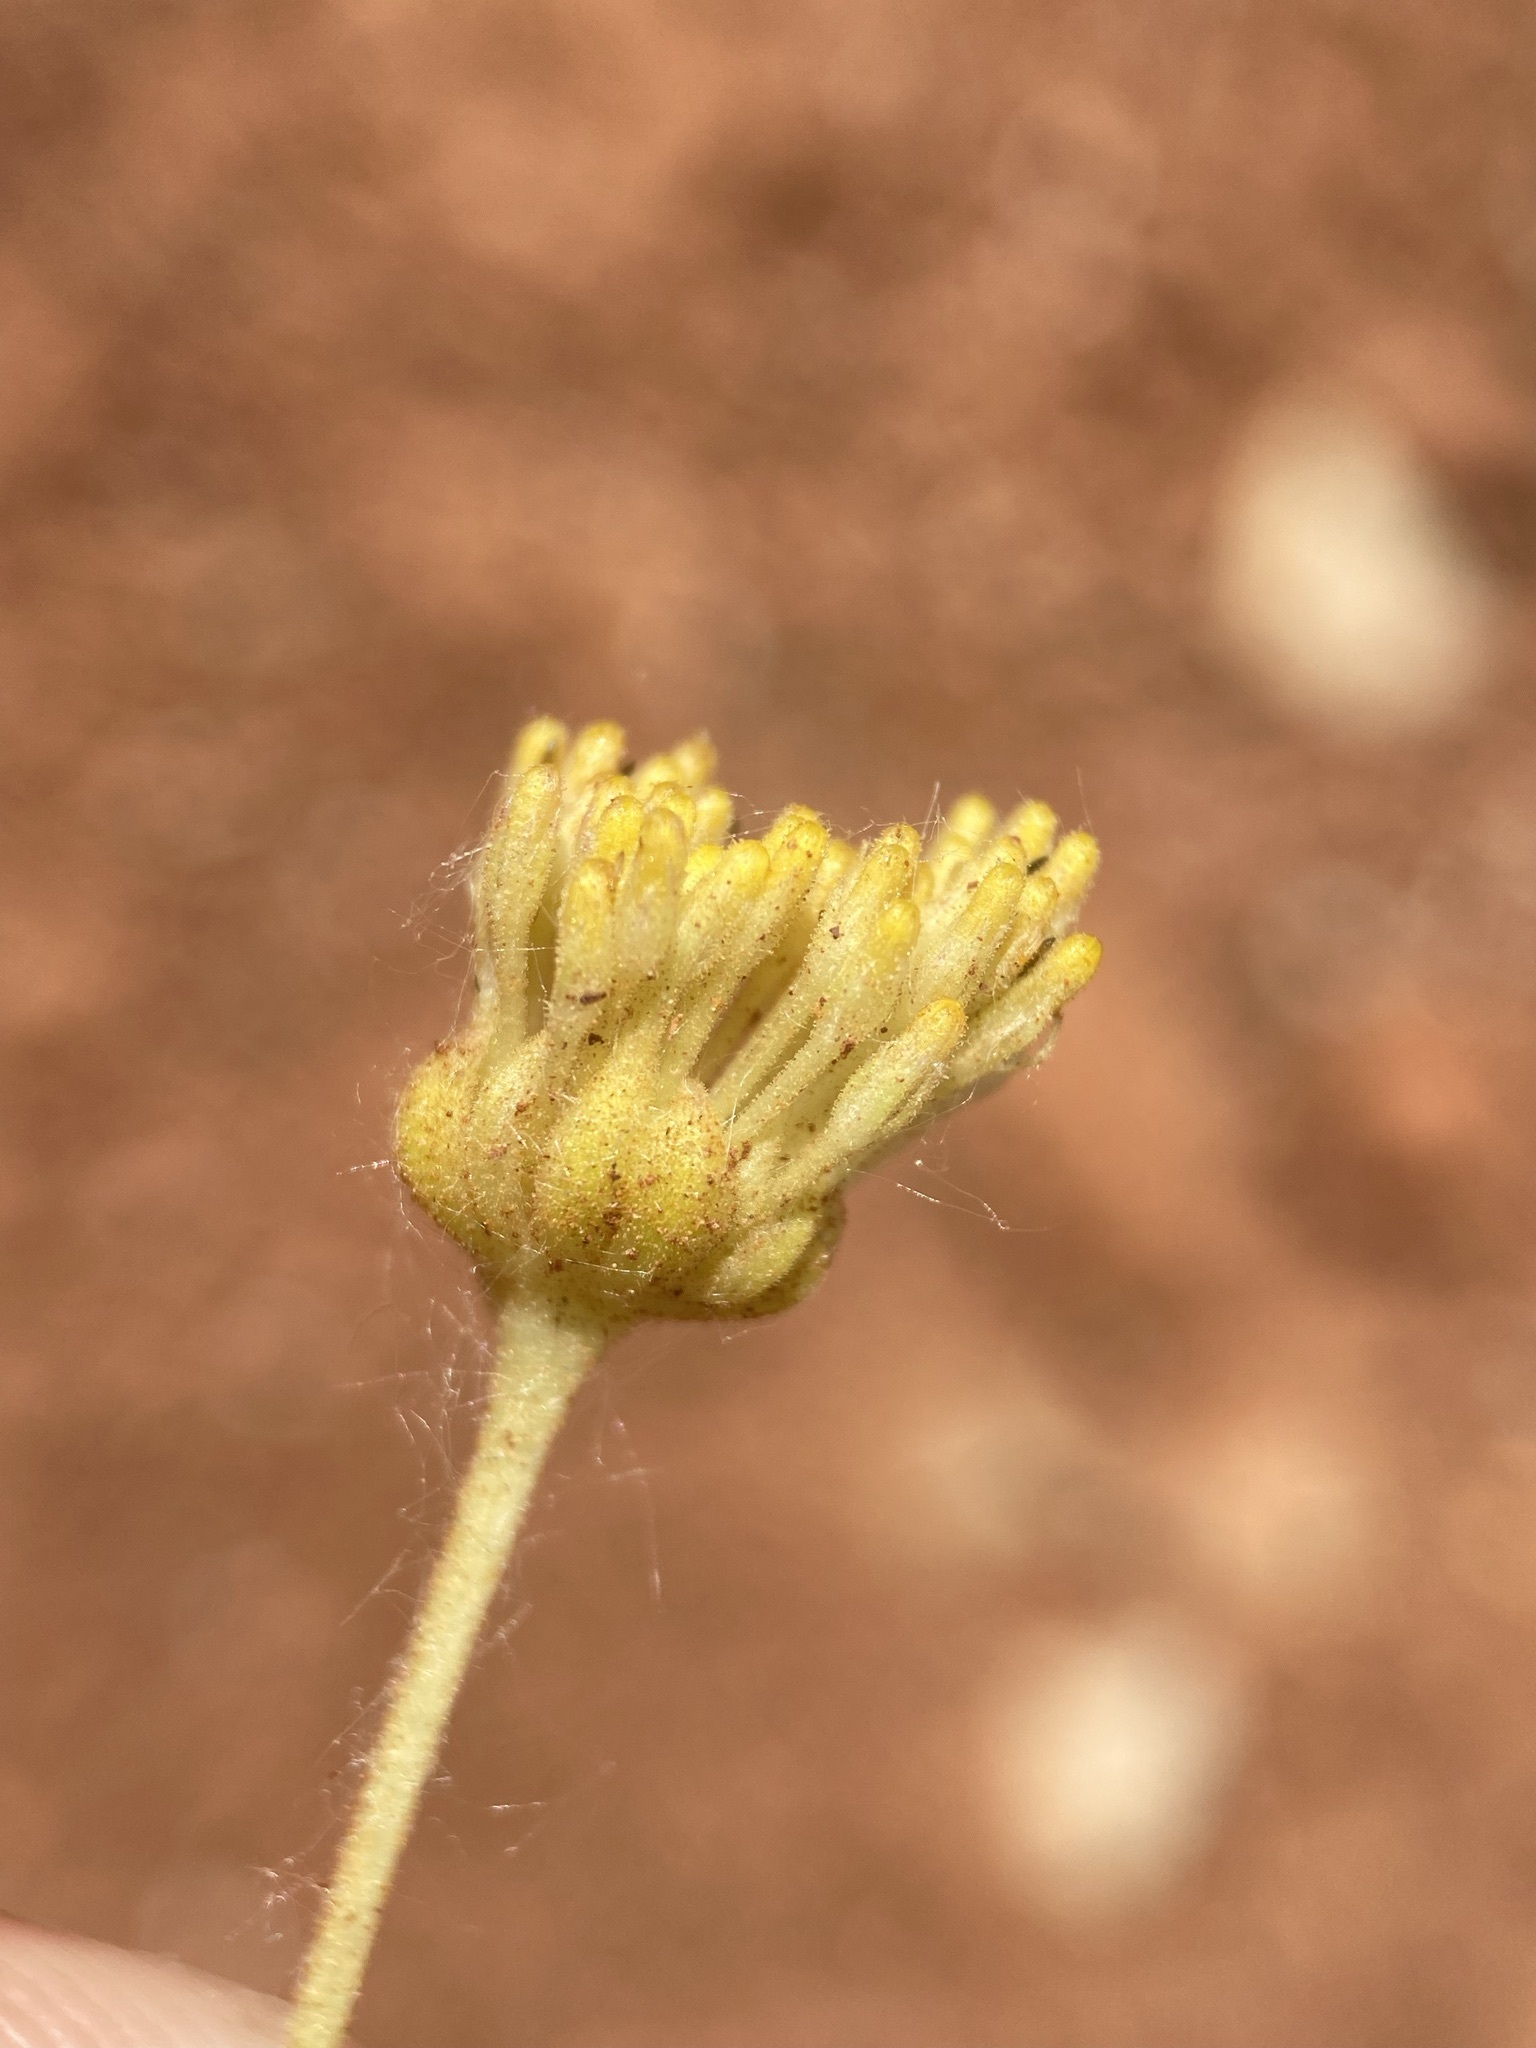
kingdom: Plantae
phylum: Tracheophyta
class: Magnoliopsida
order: Asterales
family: Asteraceae
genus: Platyschkuhria
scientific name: Platyschkuhria integrifolia
